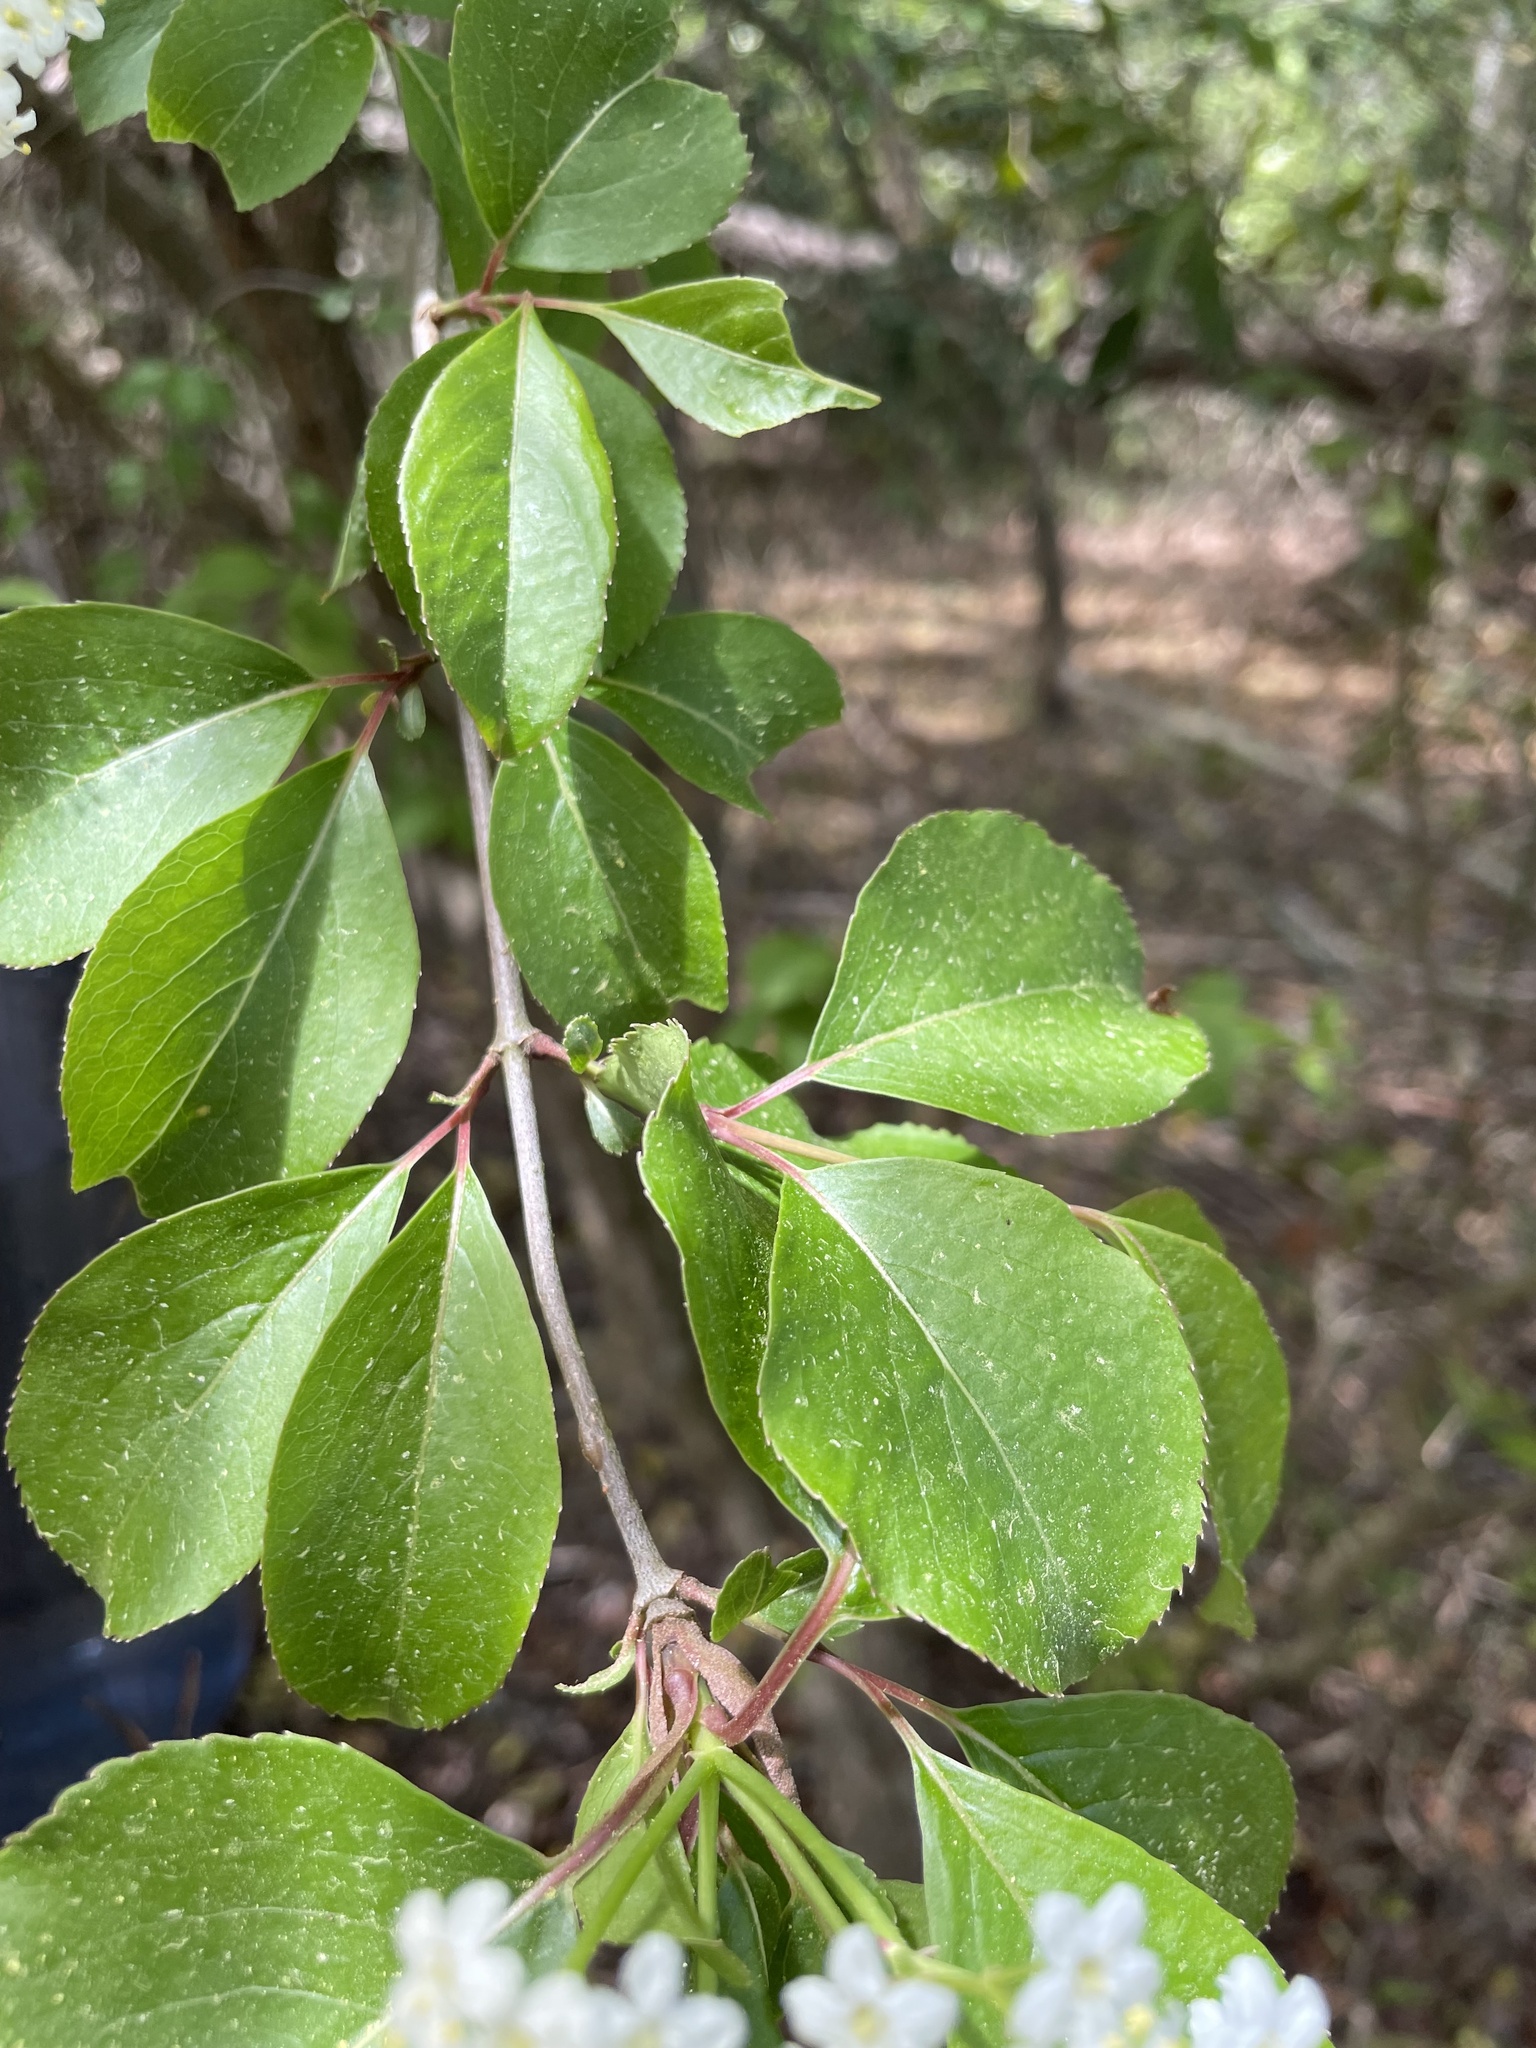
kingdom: Plantae
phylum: Tracheophyta
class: Magnoliopsida
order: Dipsacales
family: Viburnaceae
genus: Viburnum
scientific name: Viburnum prunifolium
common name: Black haw
